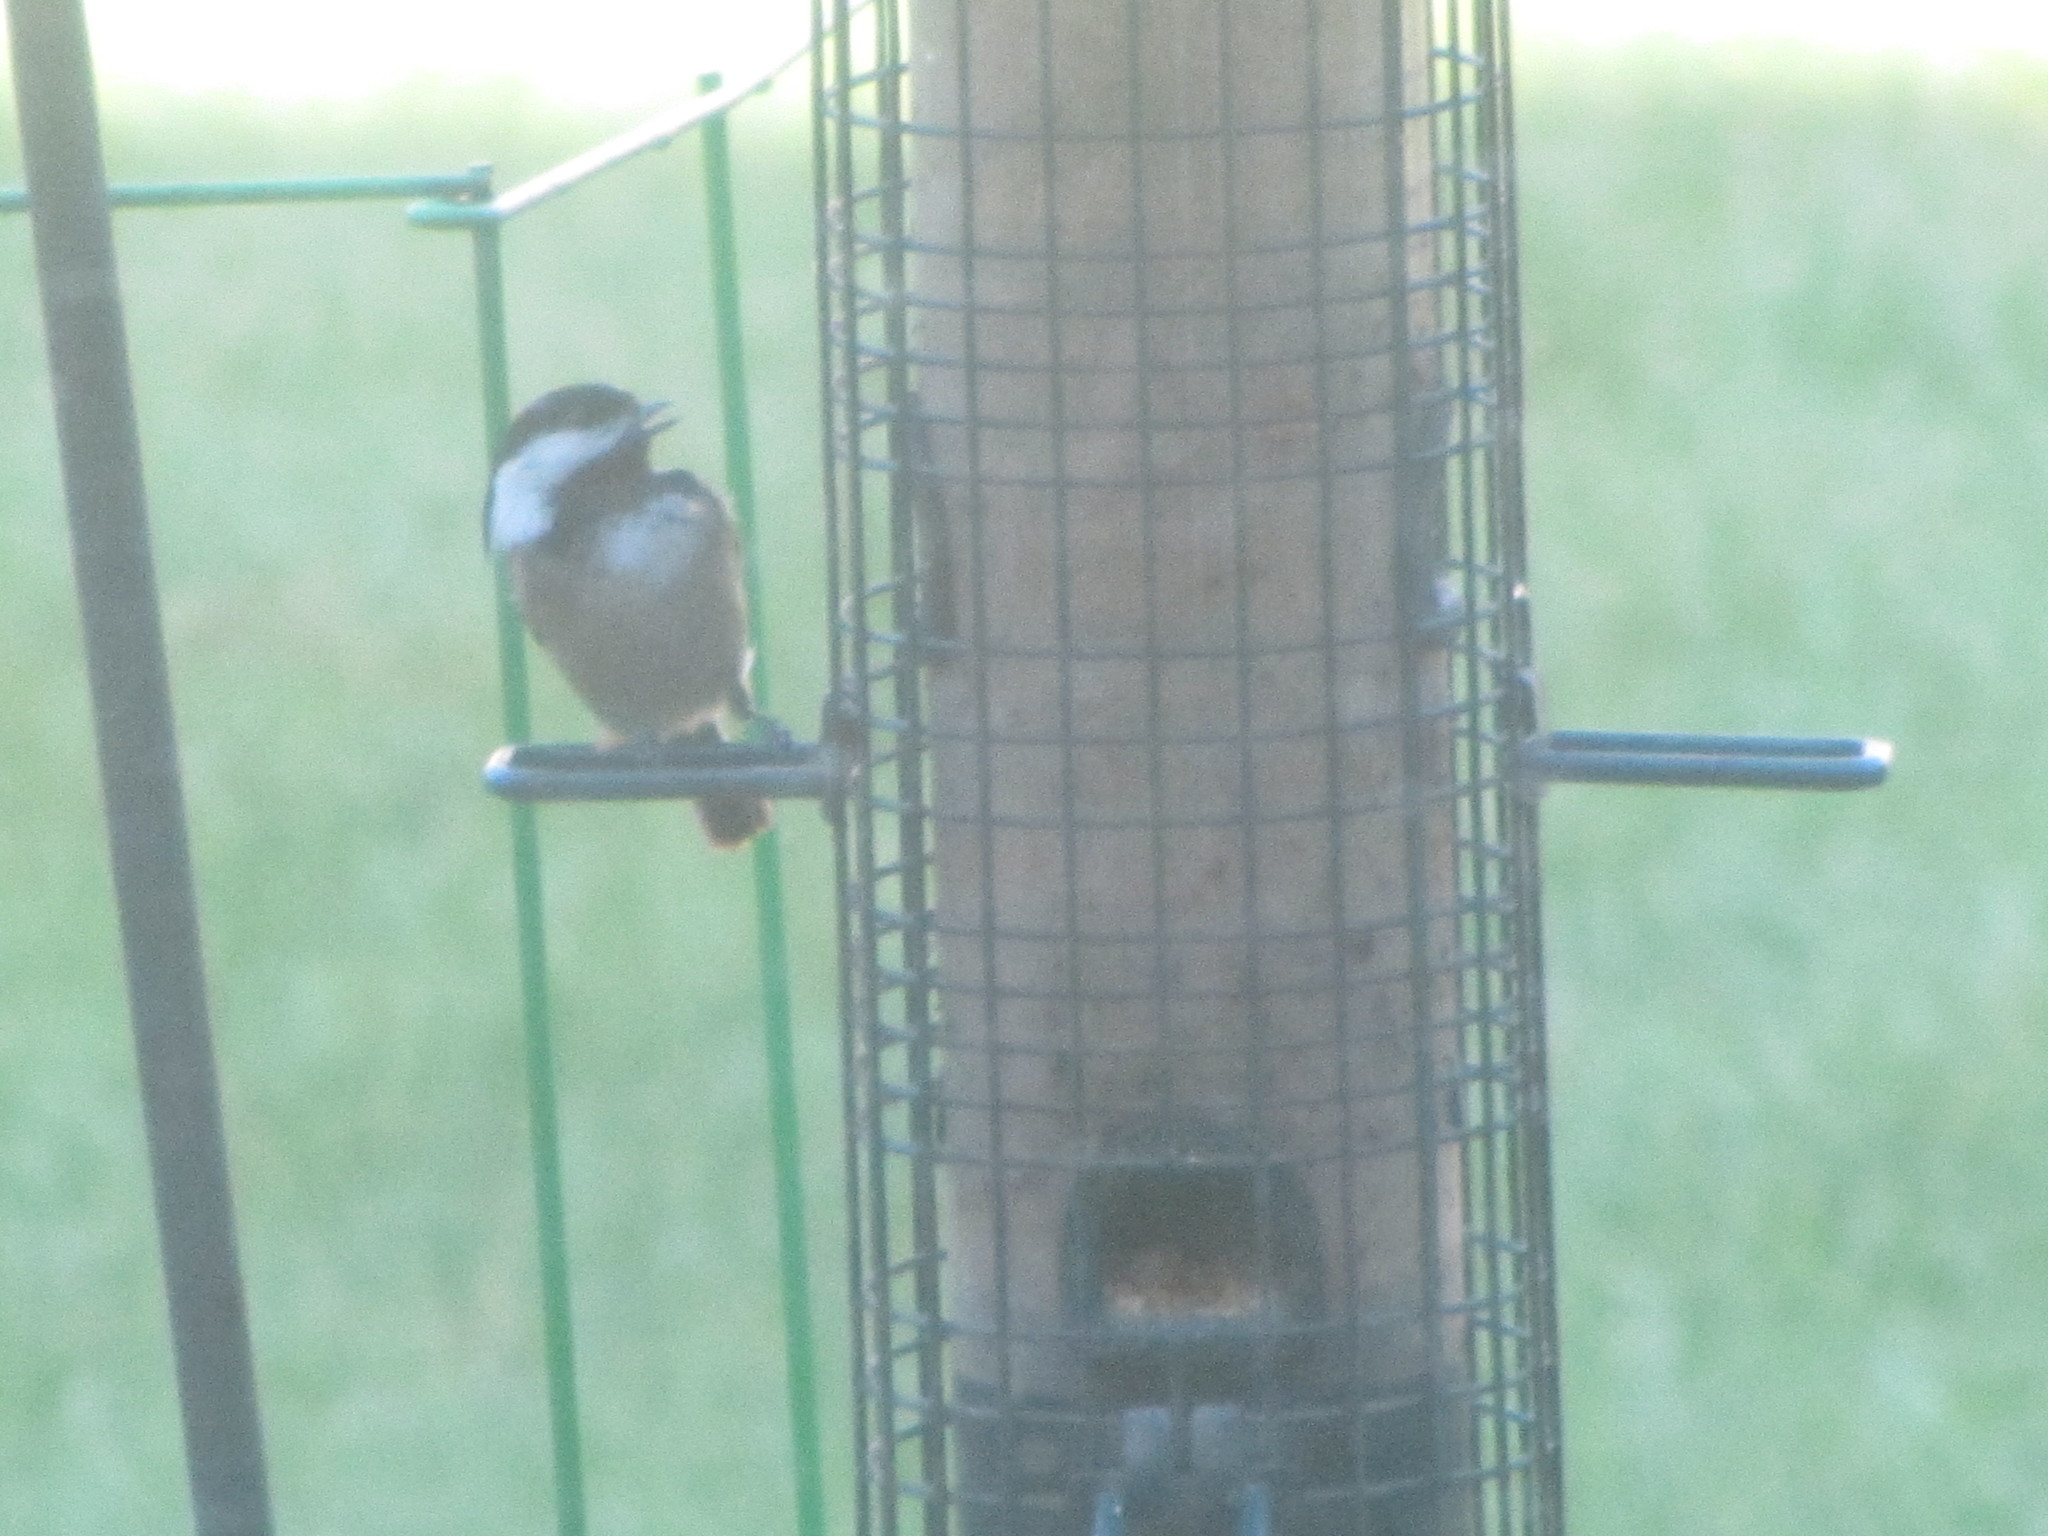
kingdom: Animalia
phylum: Chordata
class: Aves
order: Passeriformes
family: Paridae
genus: Poecile
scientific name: Poecile atricapillus
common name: Black-capped chickadee
